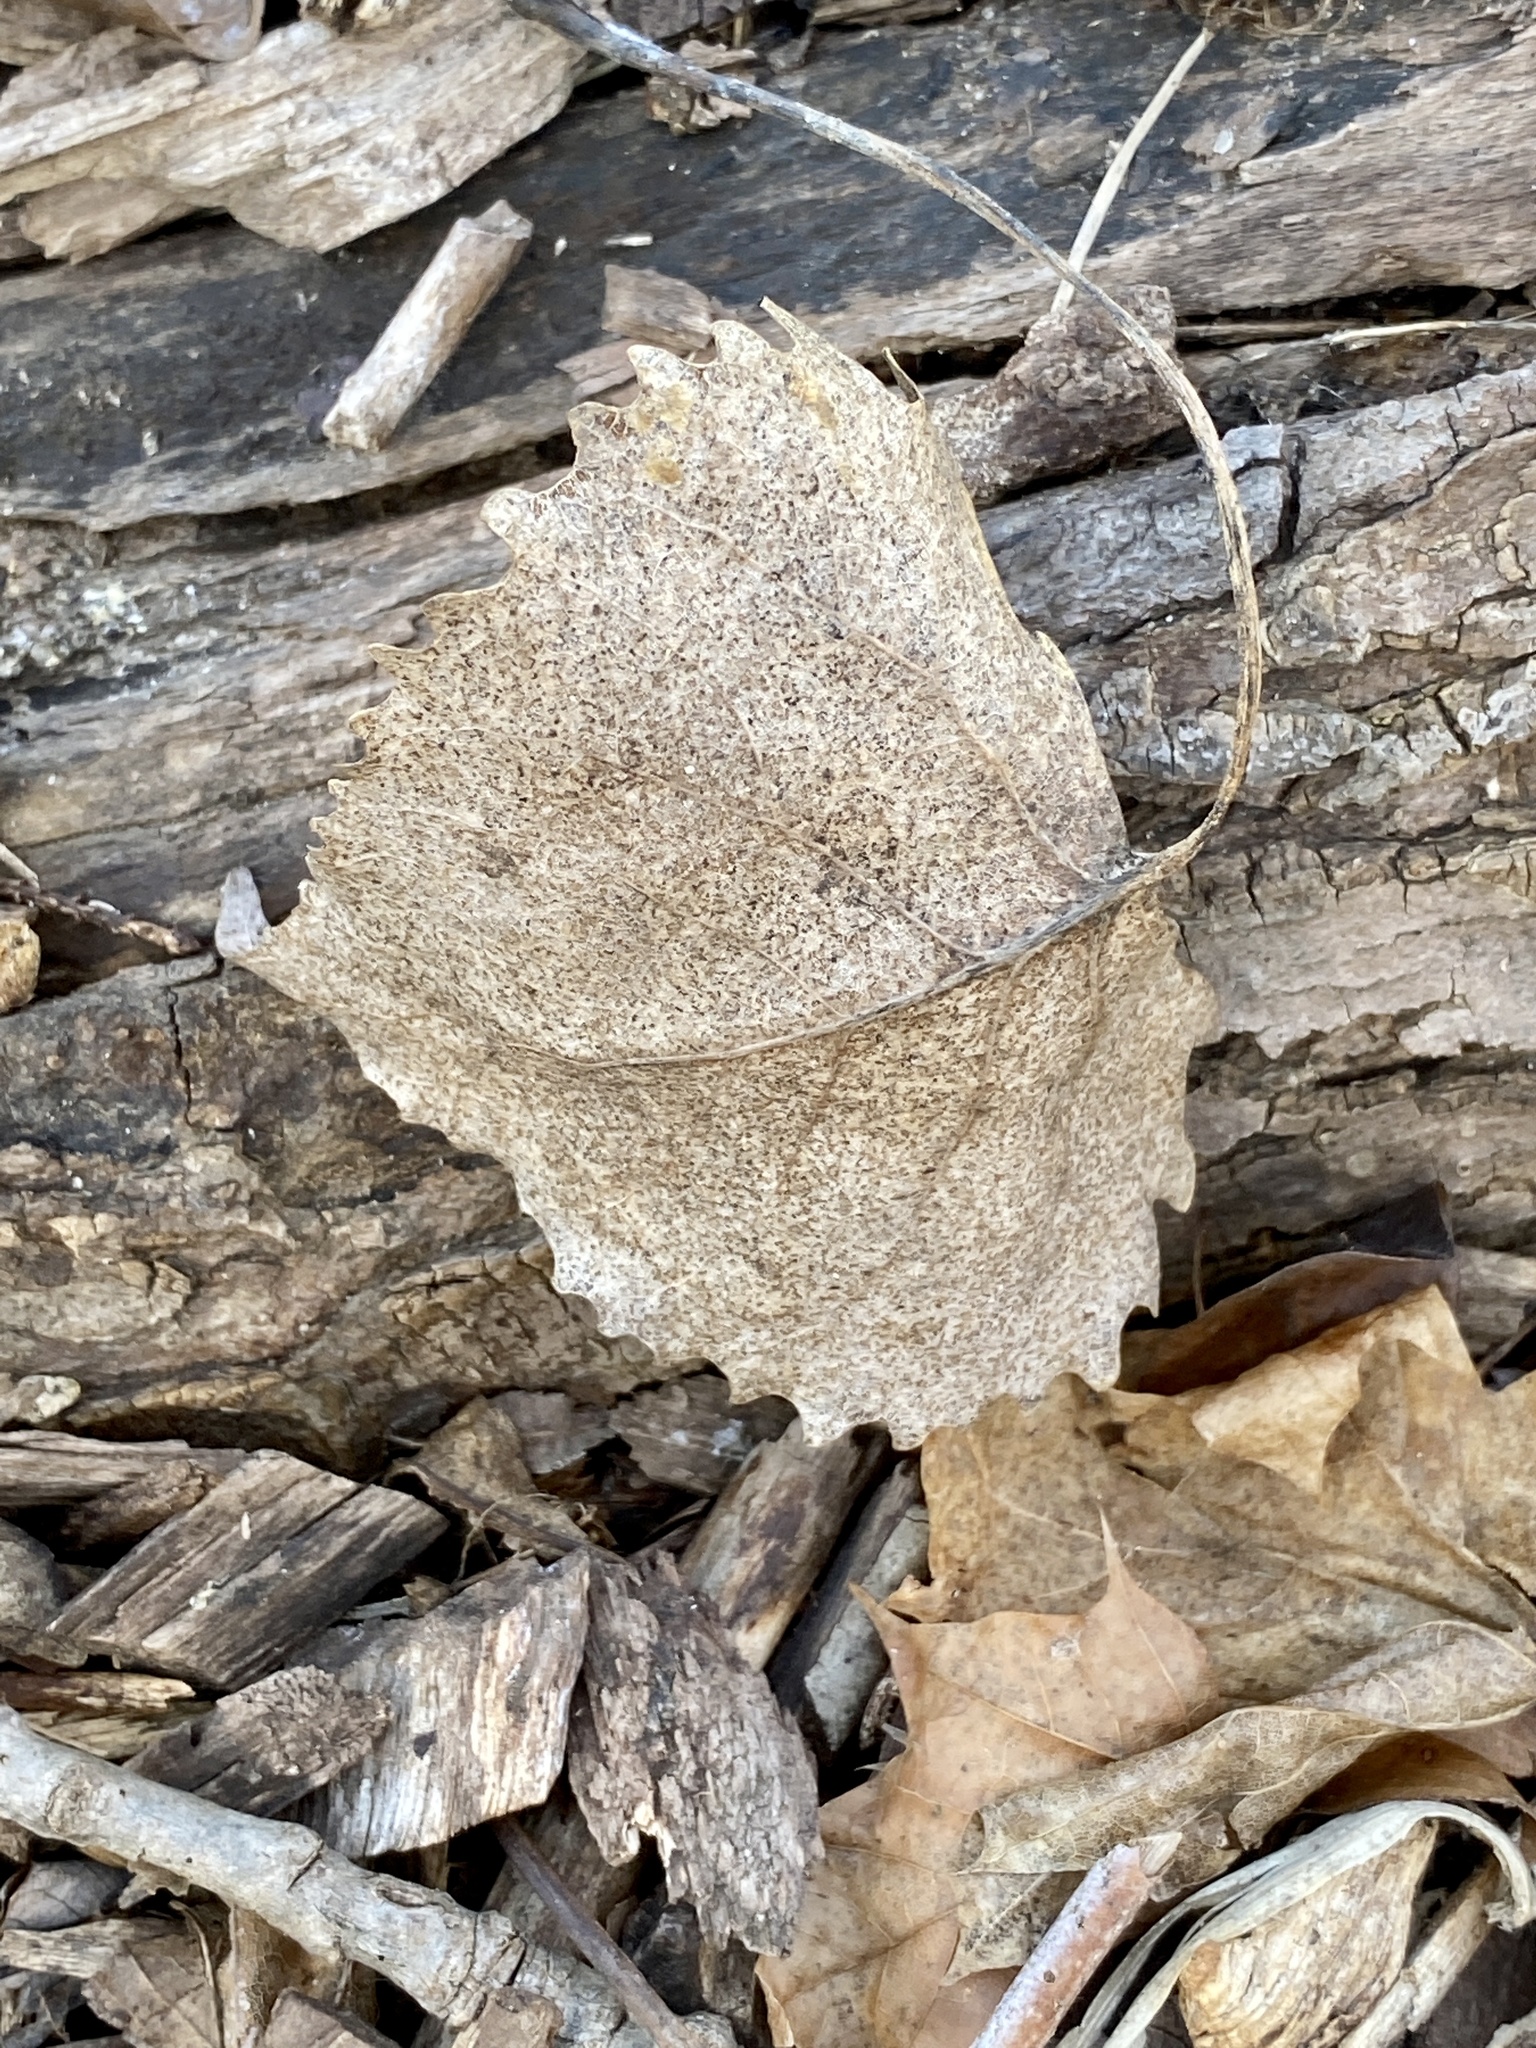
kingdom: Plantae
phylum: Tracheophyta
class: Magnoliopsida
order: Malpighiales
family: Salicaceae
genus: Populus
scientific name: Populus deltoides
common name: Eastern cottonwood
